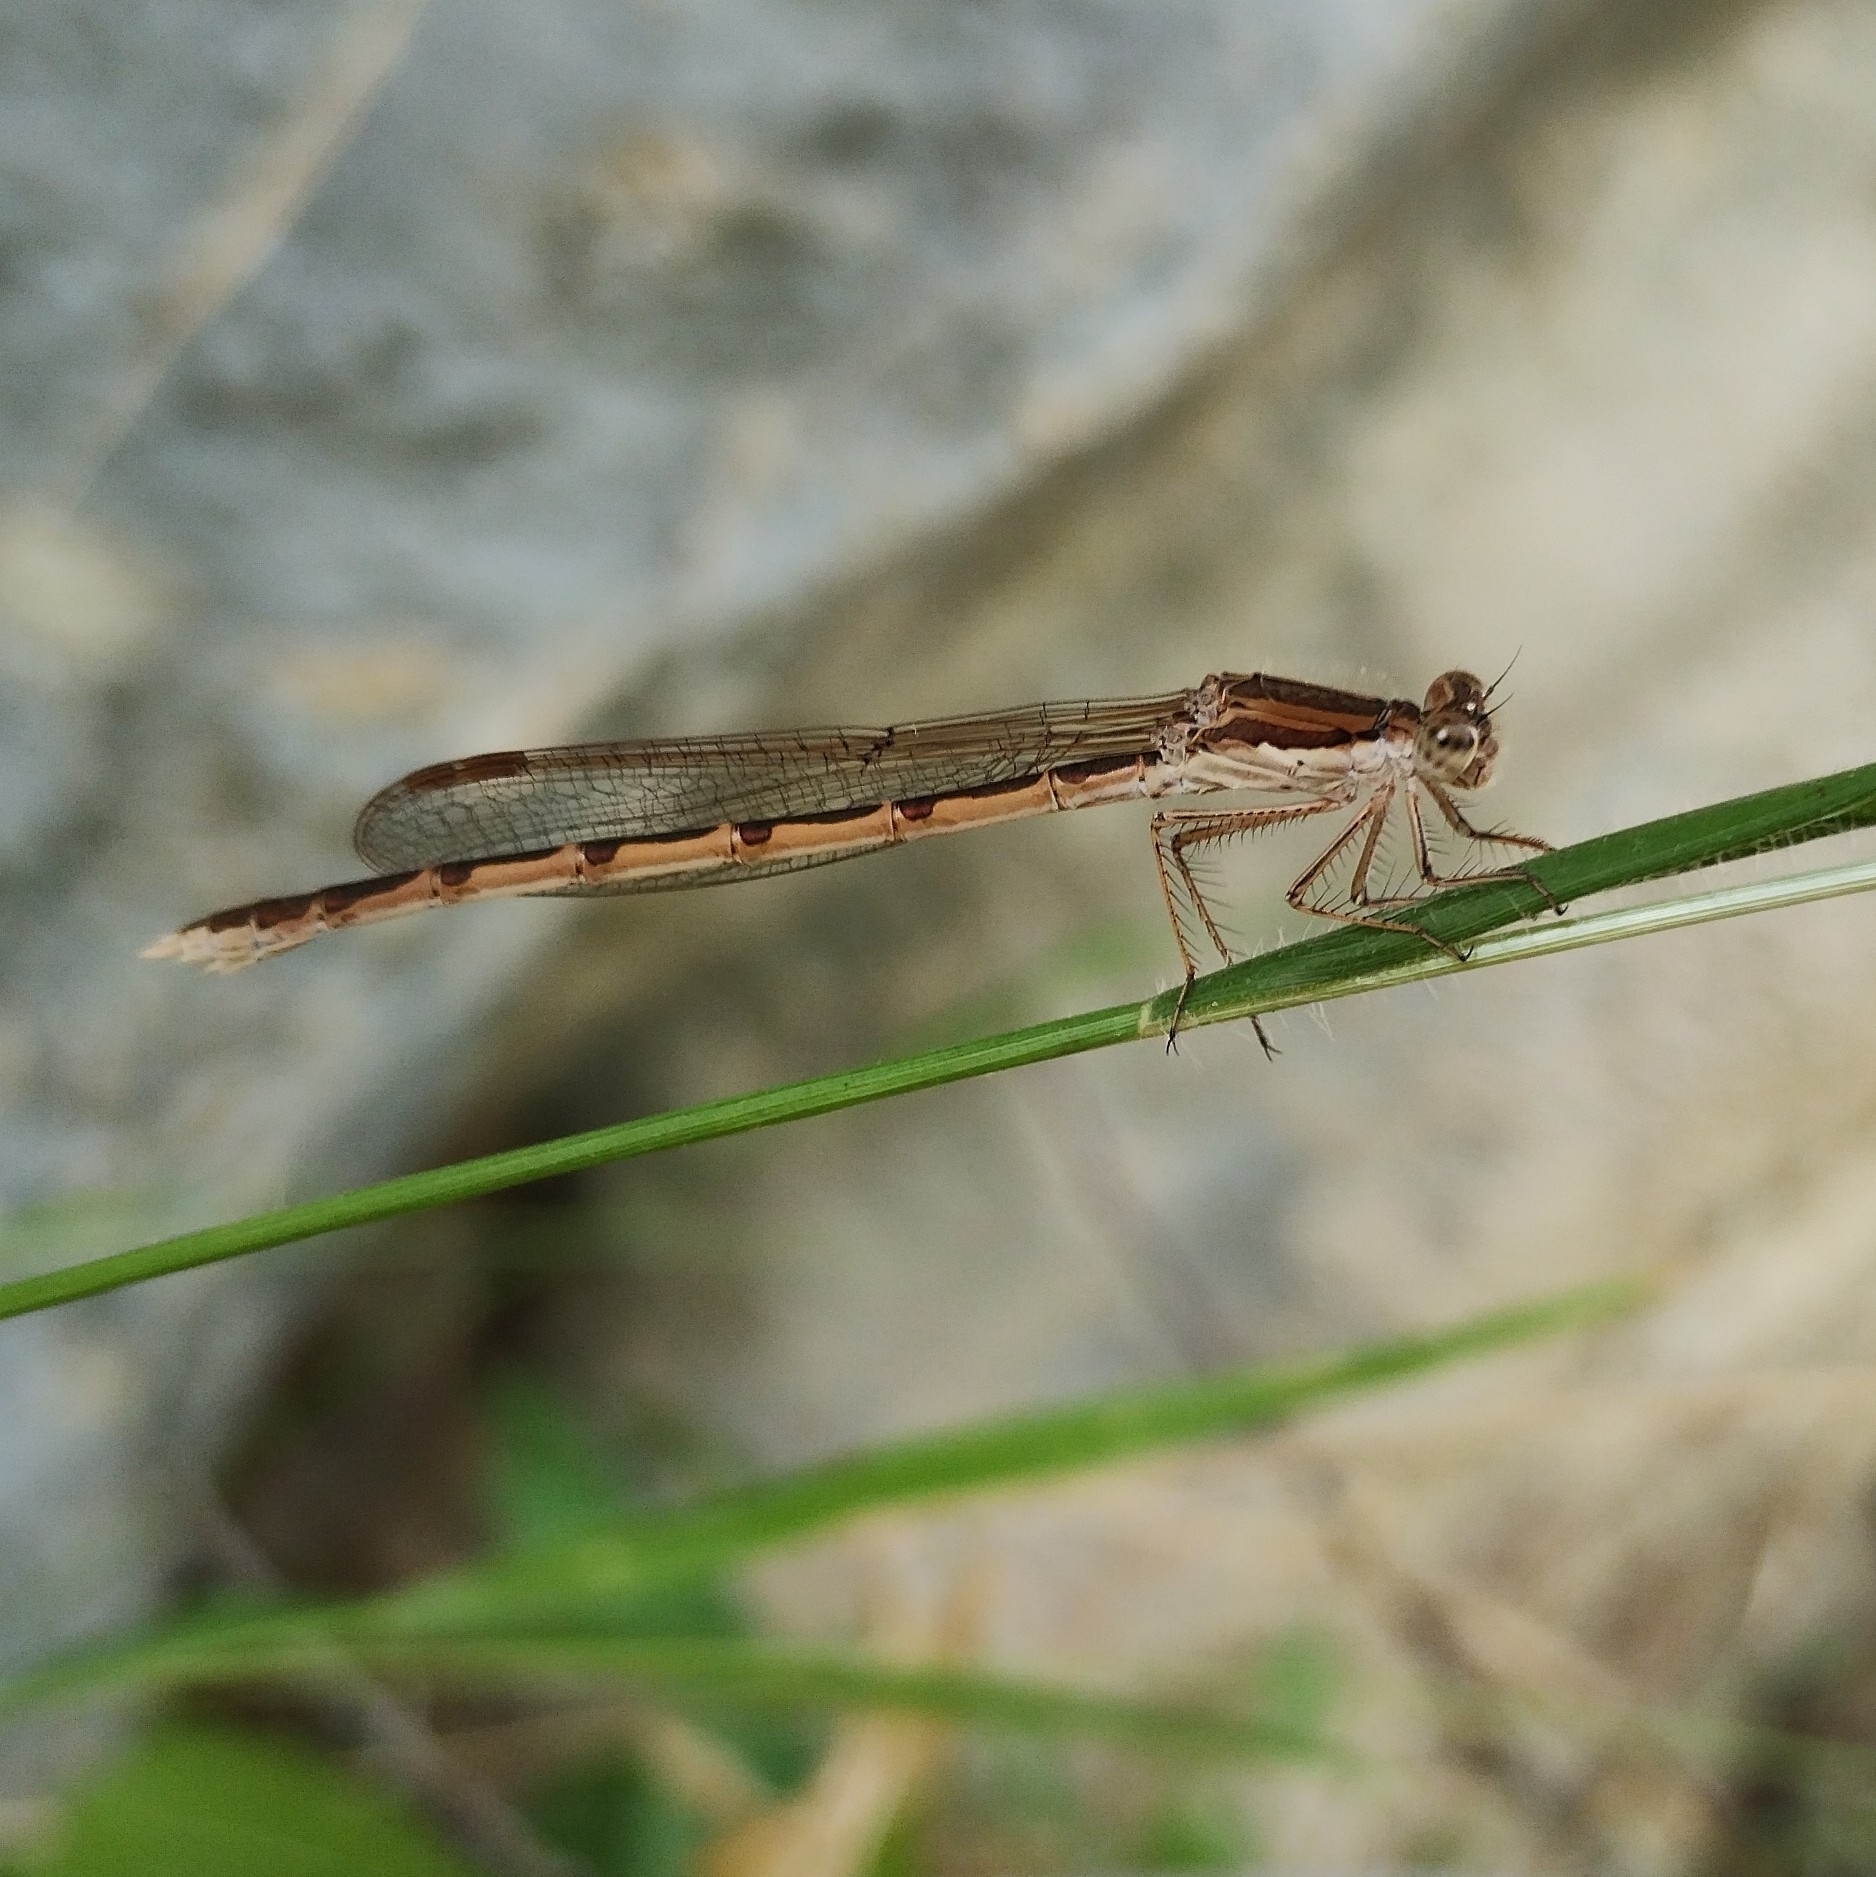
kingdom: Animalia
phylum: Arthropoda
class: Insecta
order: Odonata
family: Lestidae
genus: Sympecma
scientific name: Sympecma fusca
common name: Common winter damsel
